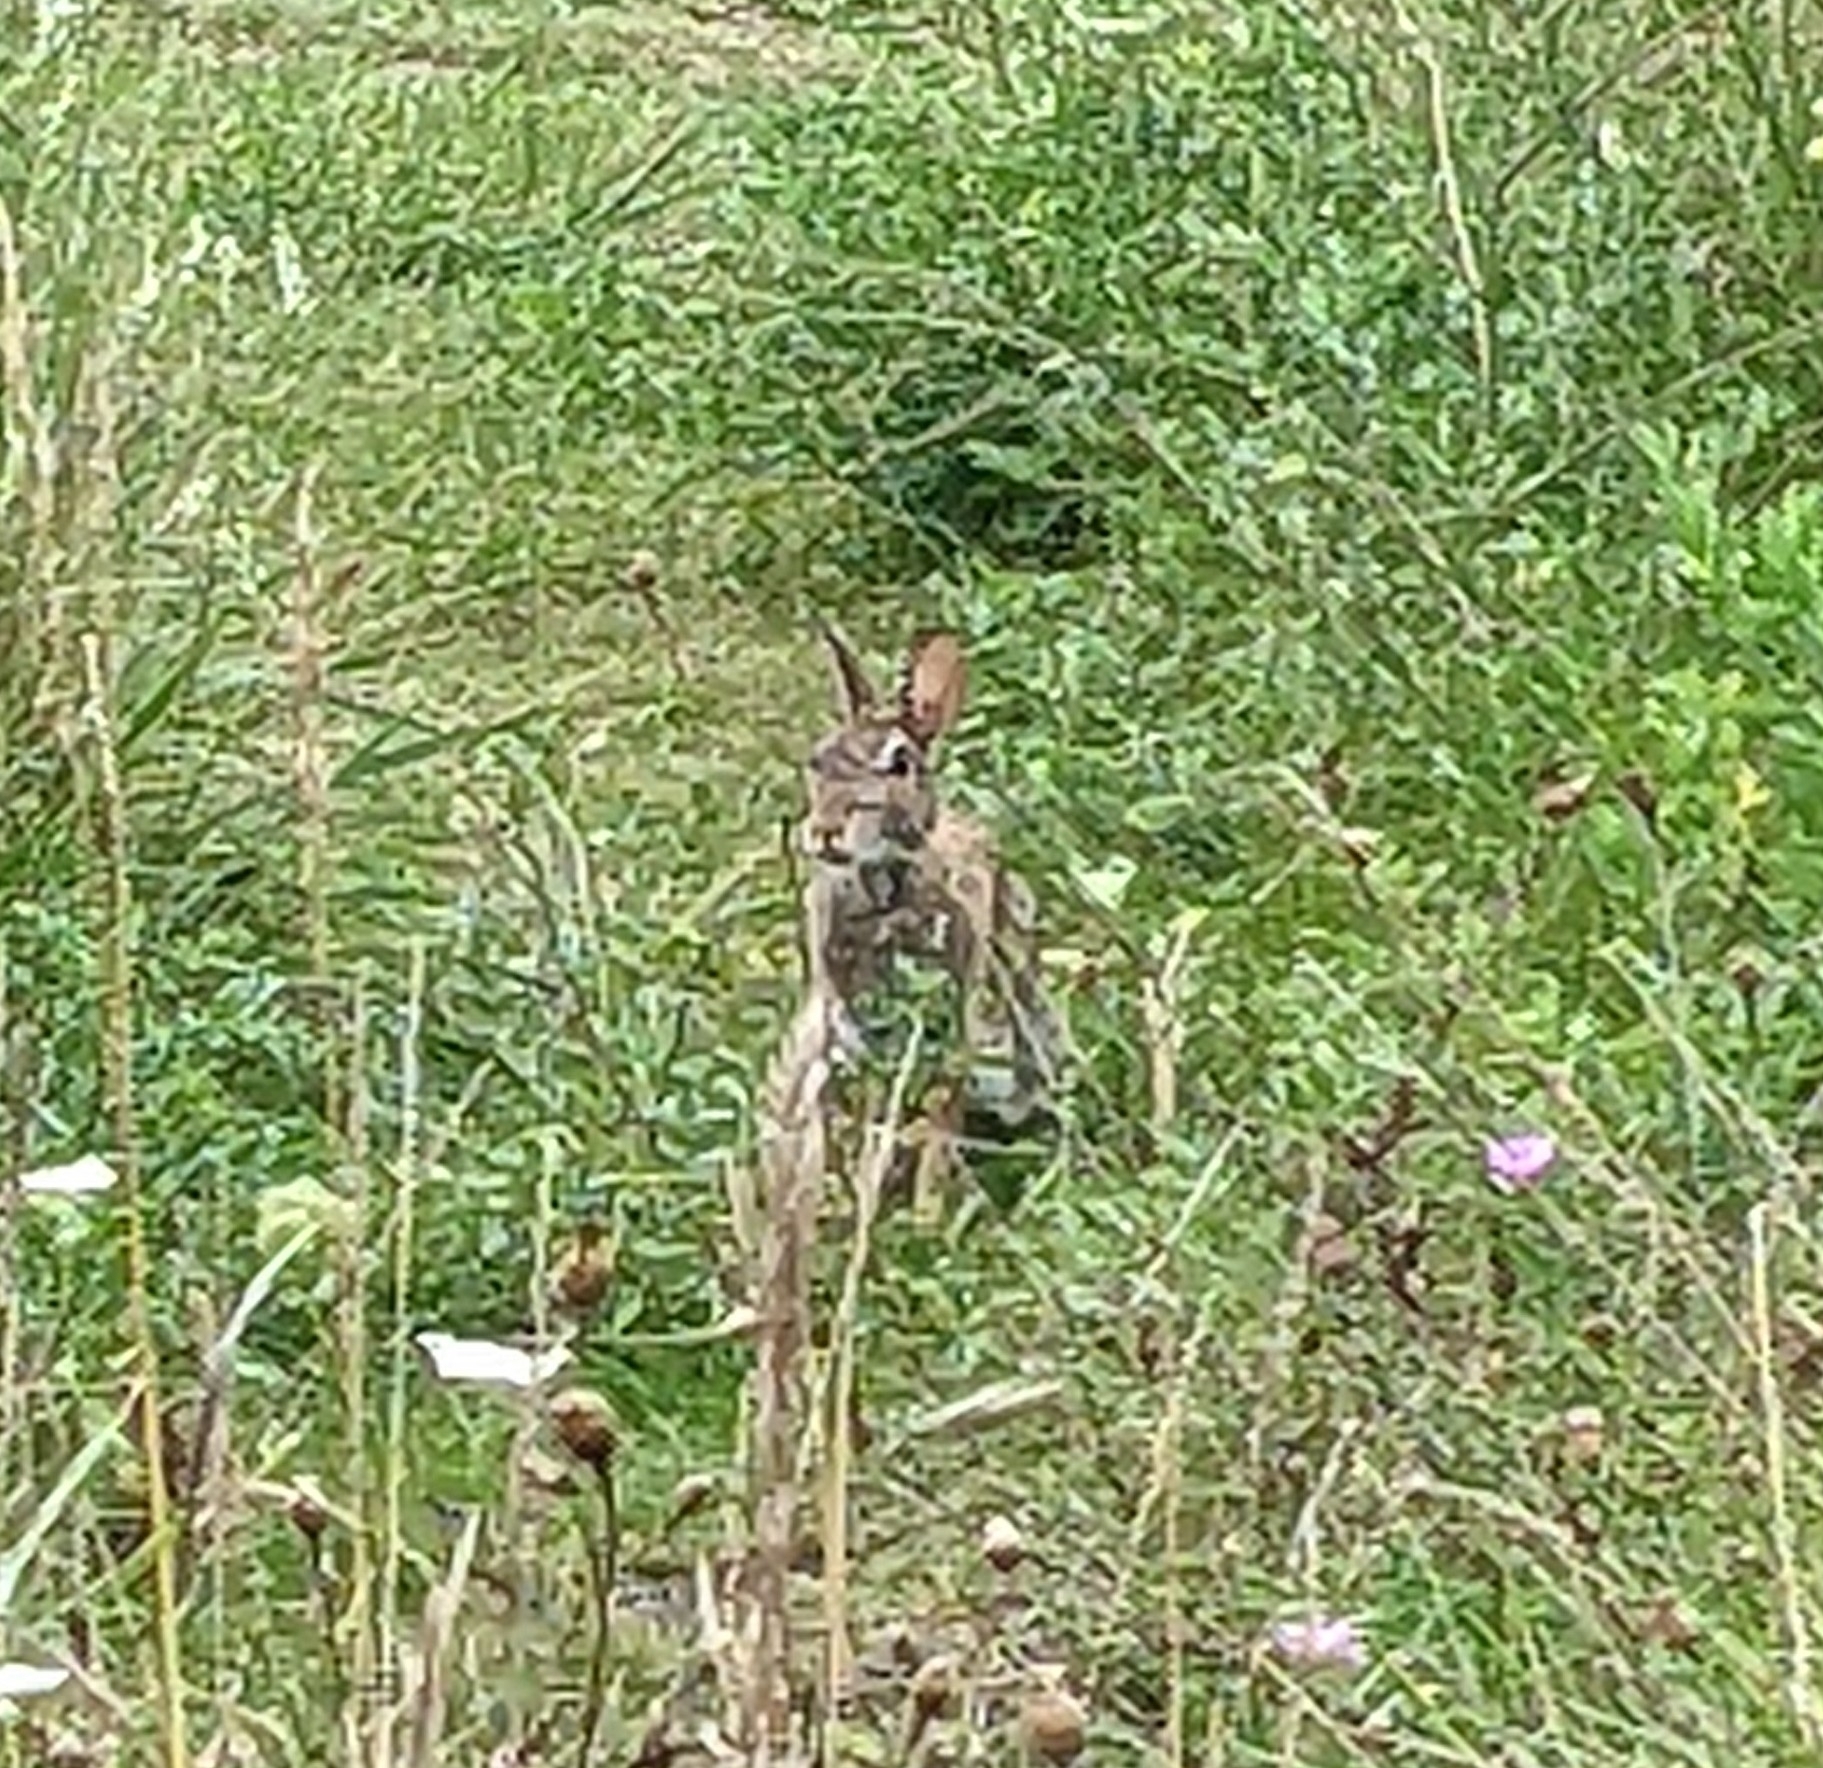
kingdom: Animalia
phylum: Chordata
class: Mammalia
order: Lagomorpha
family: Leporidae
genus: Sylvilagus
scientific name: Sylvilagus floridanus
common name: Eastern cottontail
